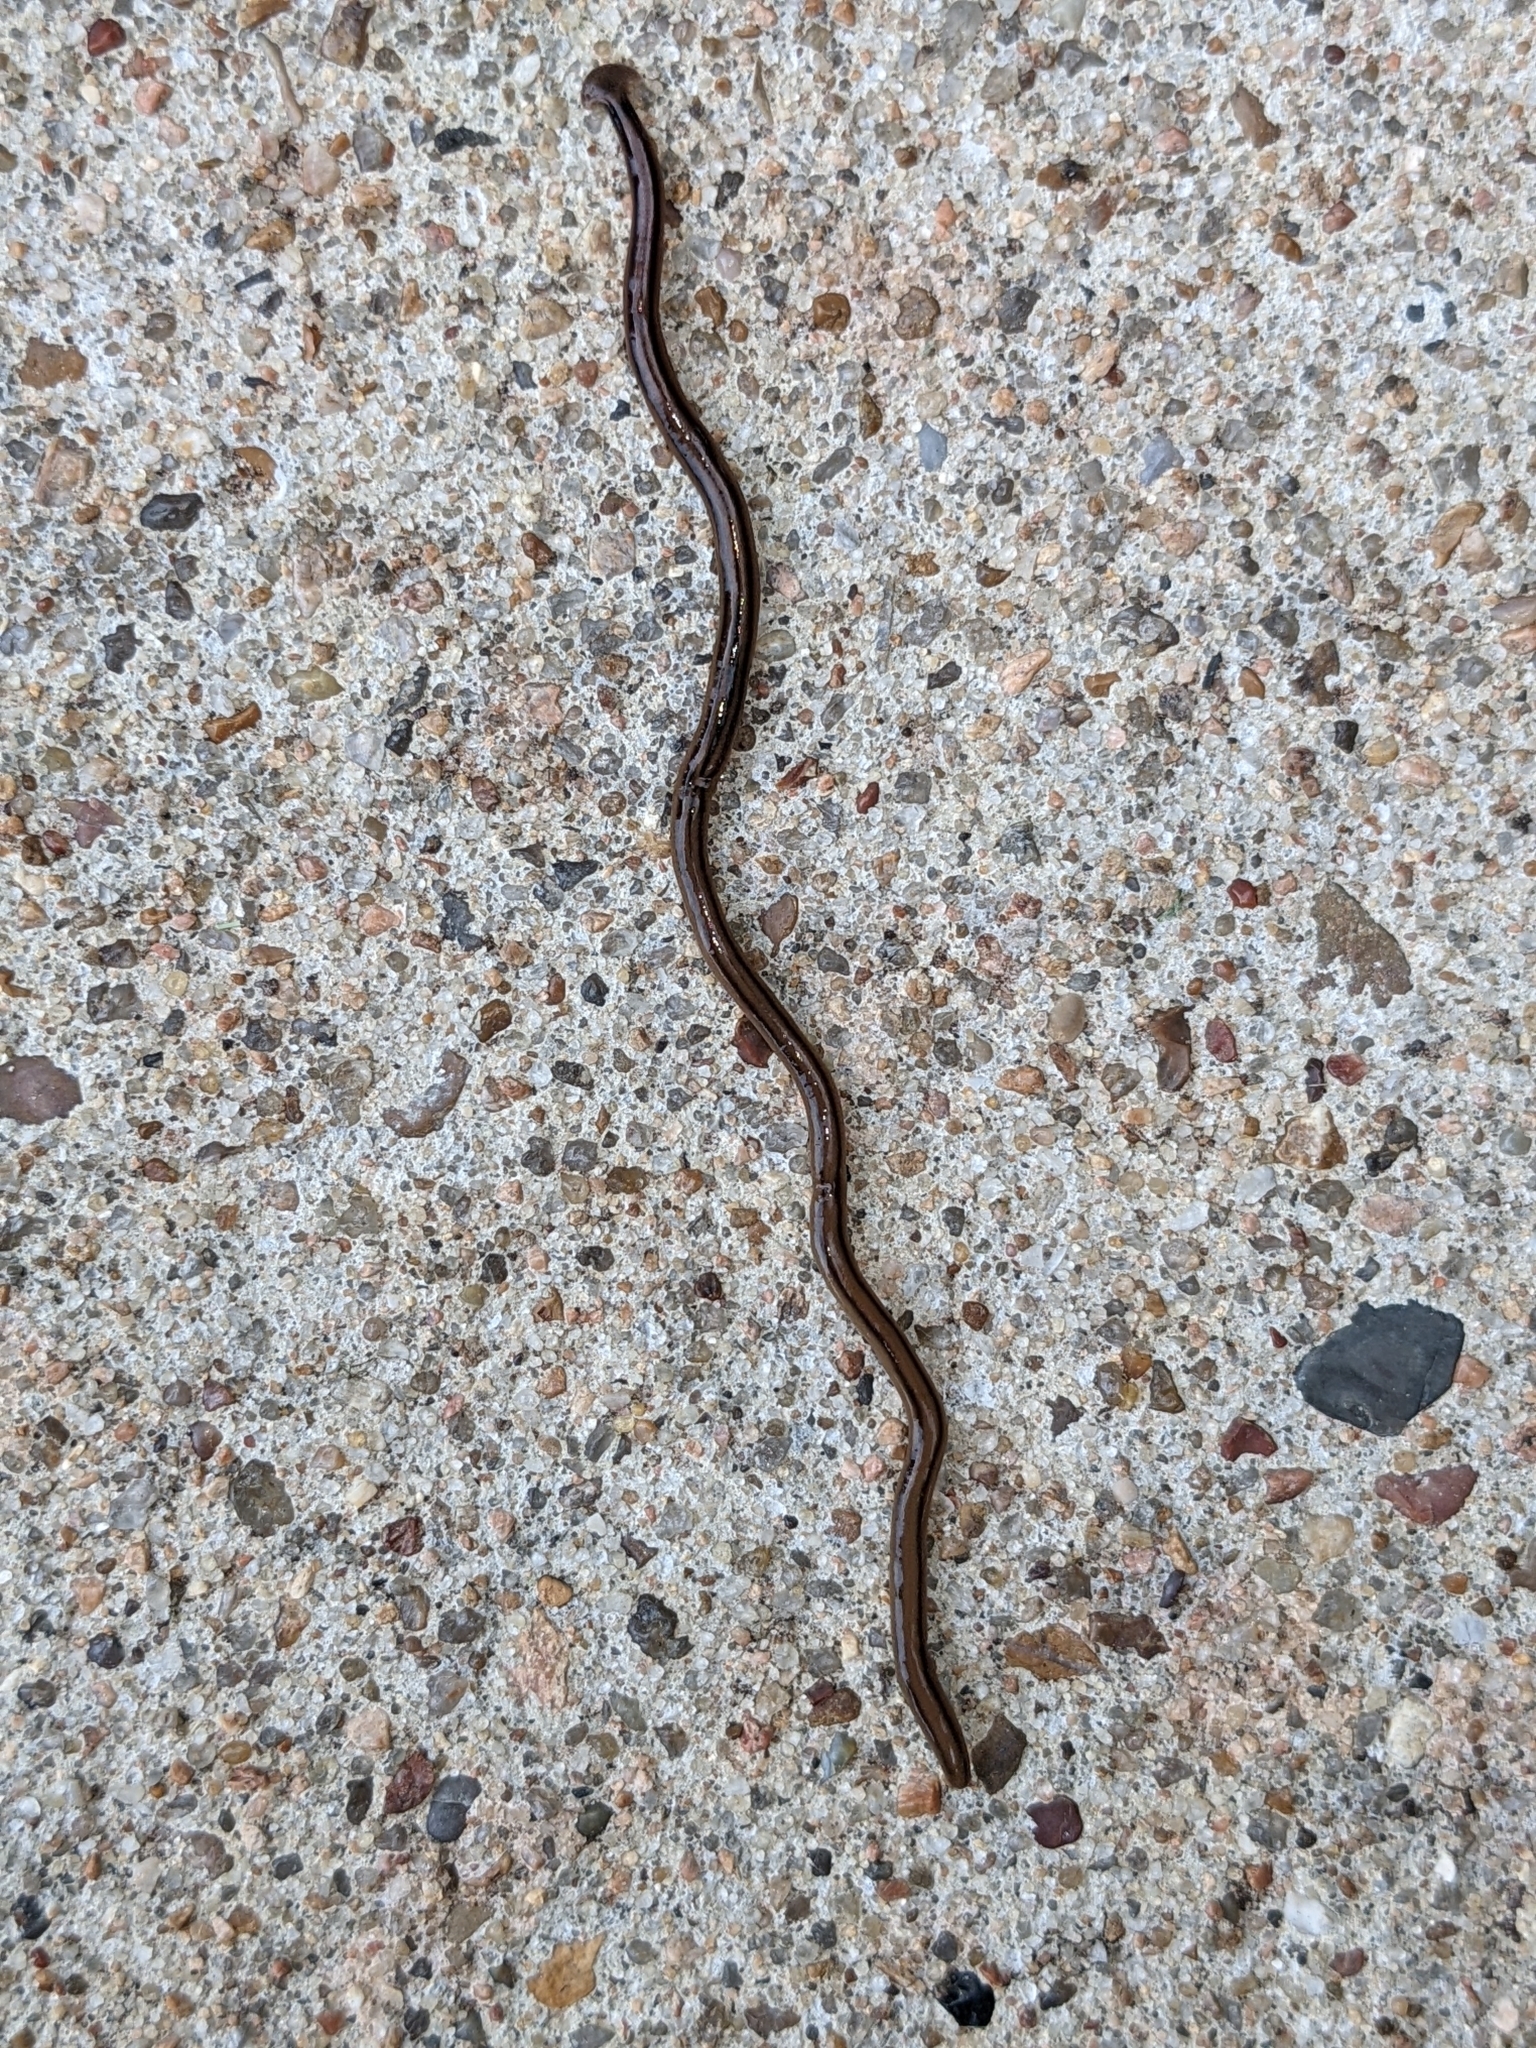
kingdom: Animalia
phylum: Platyhelminthes
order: Tricladida
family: Geoplanidae
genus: Bipalium
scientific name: Bipalium kewense
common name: Hammerhead flatworm
